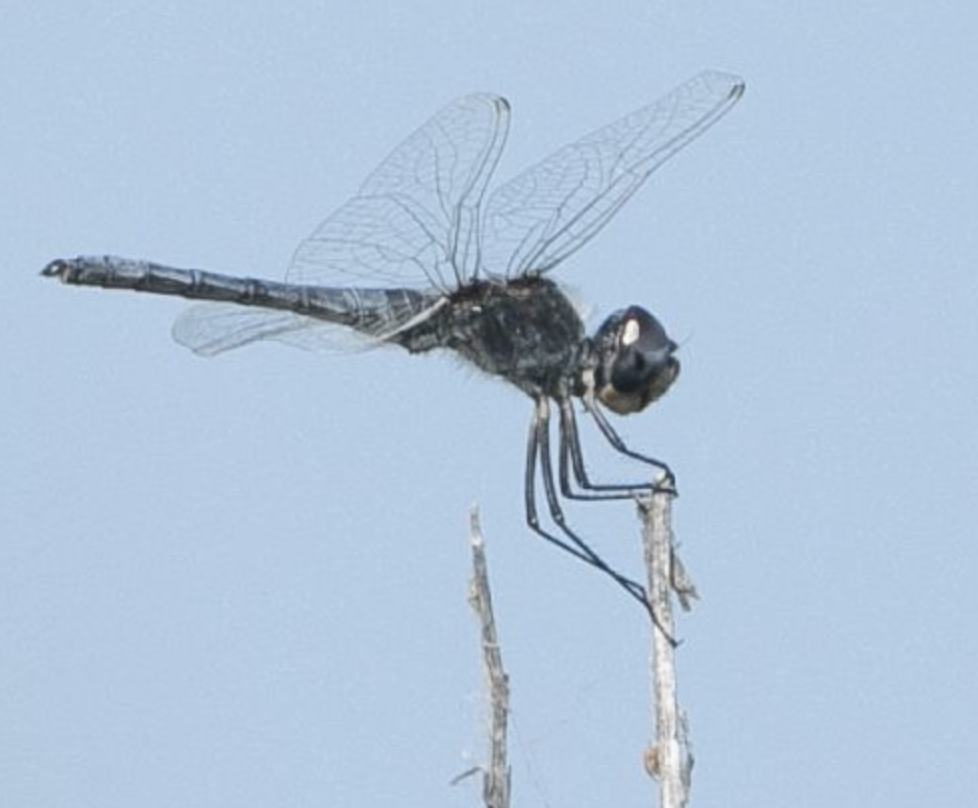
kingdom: Animalia
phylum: Arthropoda
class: Insecta
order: Odonata
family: Libellulidae
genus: Selysiothemis
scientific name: Selysiothemis nigra
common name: Black pennant
